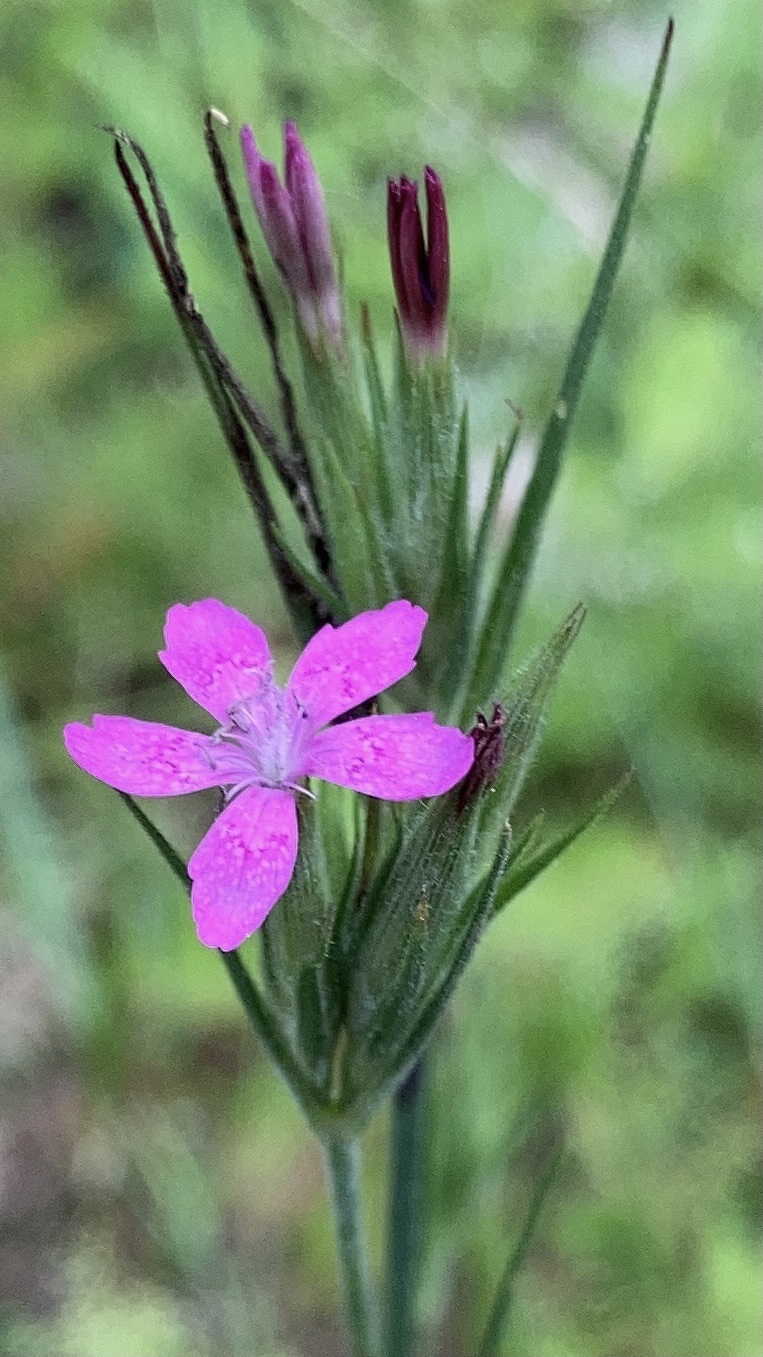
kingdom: Plantae
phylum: Tracheophyta
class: Magnoliopsida
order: Caryophyllales
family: Caryophyllaceae
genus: Dianthus
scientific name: Dianthus armeria
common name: Deptford pink
